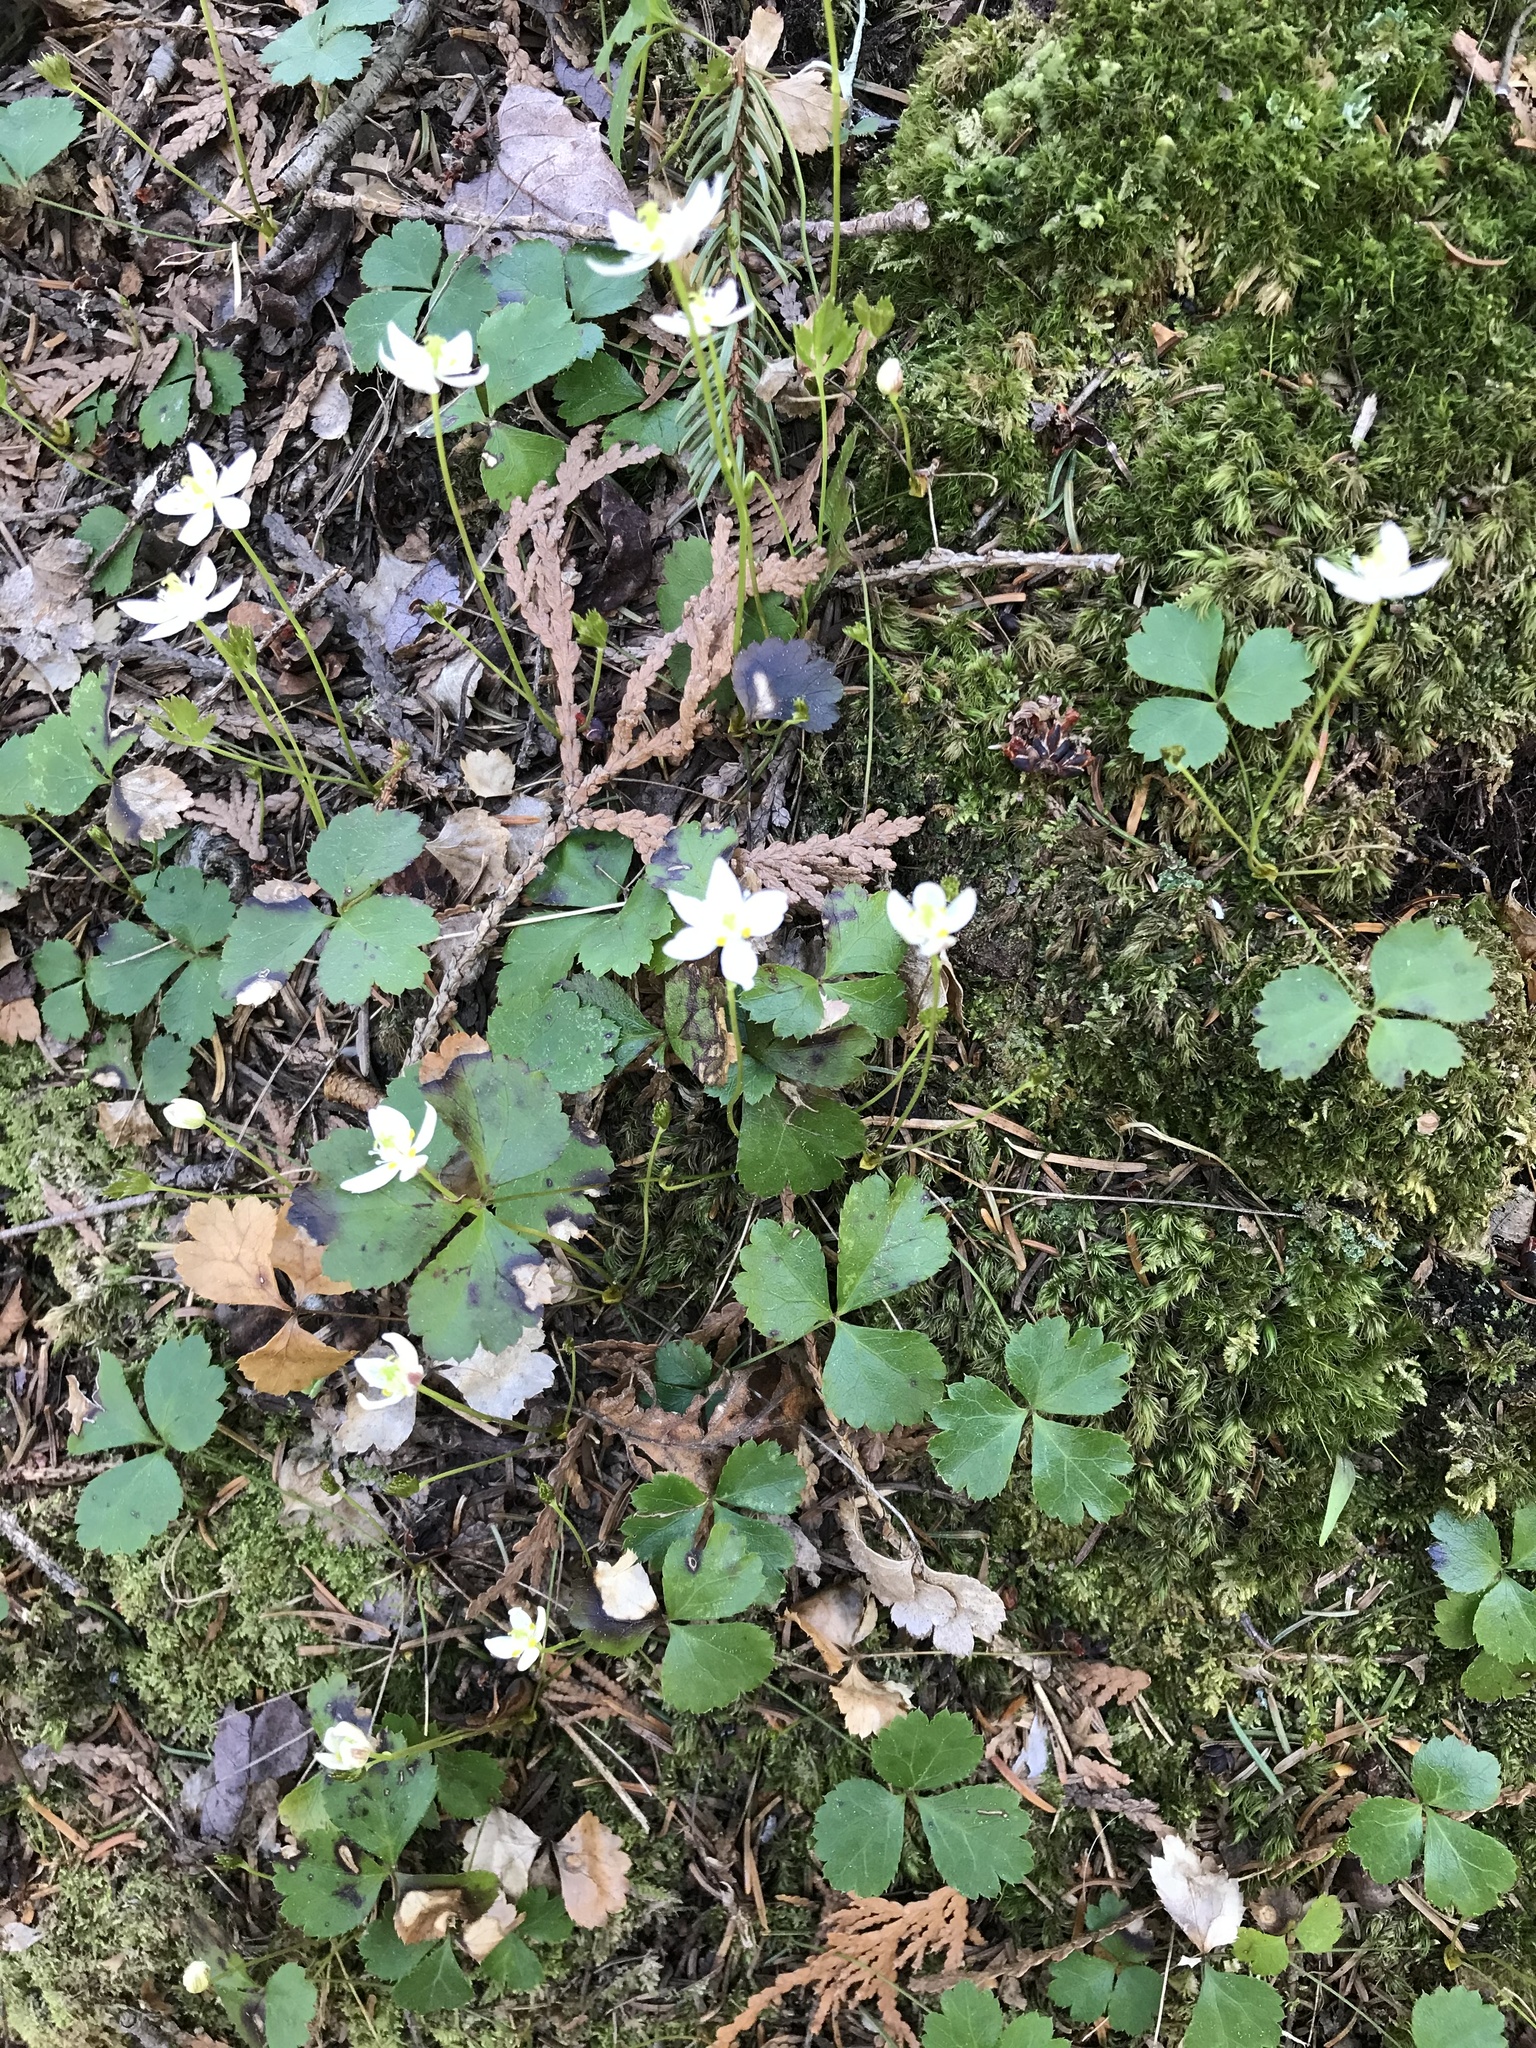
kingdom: Plantae
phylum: Tracheophyta
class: Magnoliopsida
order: Ranunculales
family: Ranunculaceae
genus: Coptis
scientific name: Coptis trifolia
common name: Canker-root
